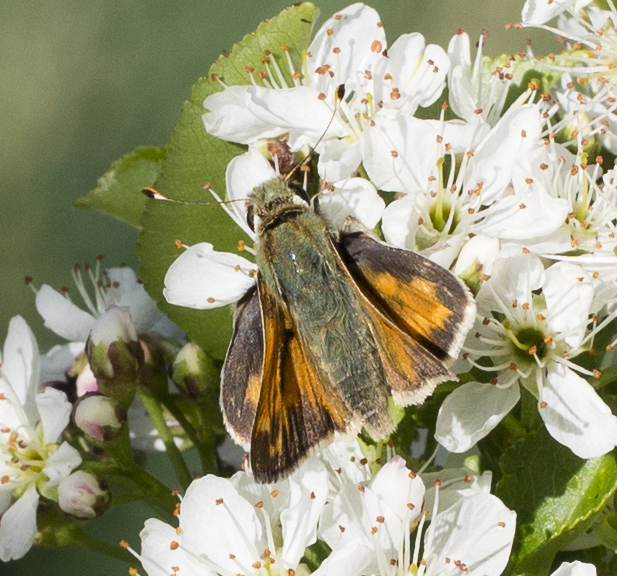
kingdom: Animalia
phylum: Arthropoda
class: Insecta
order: Lepidoptera
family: Hesperiidae
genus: Hesperia
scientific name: Hesperia juba
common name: Juba skipper
